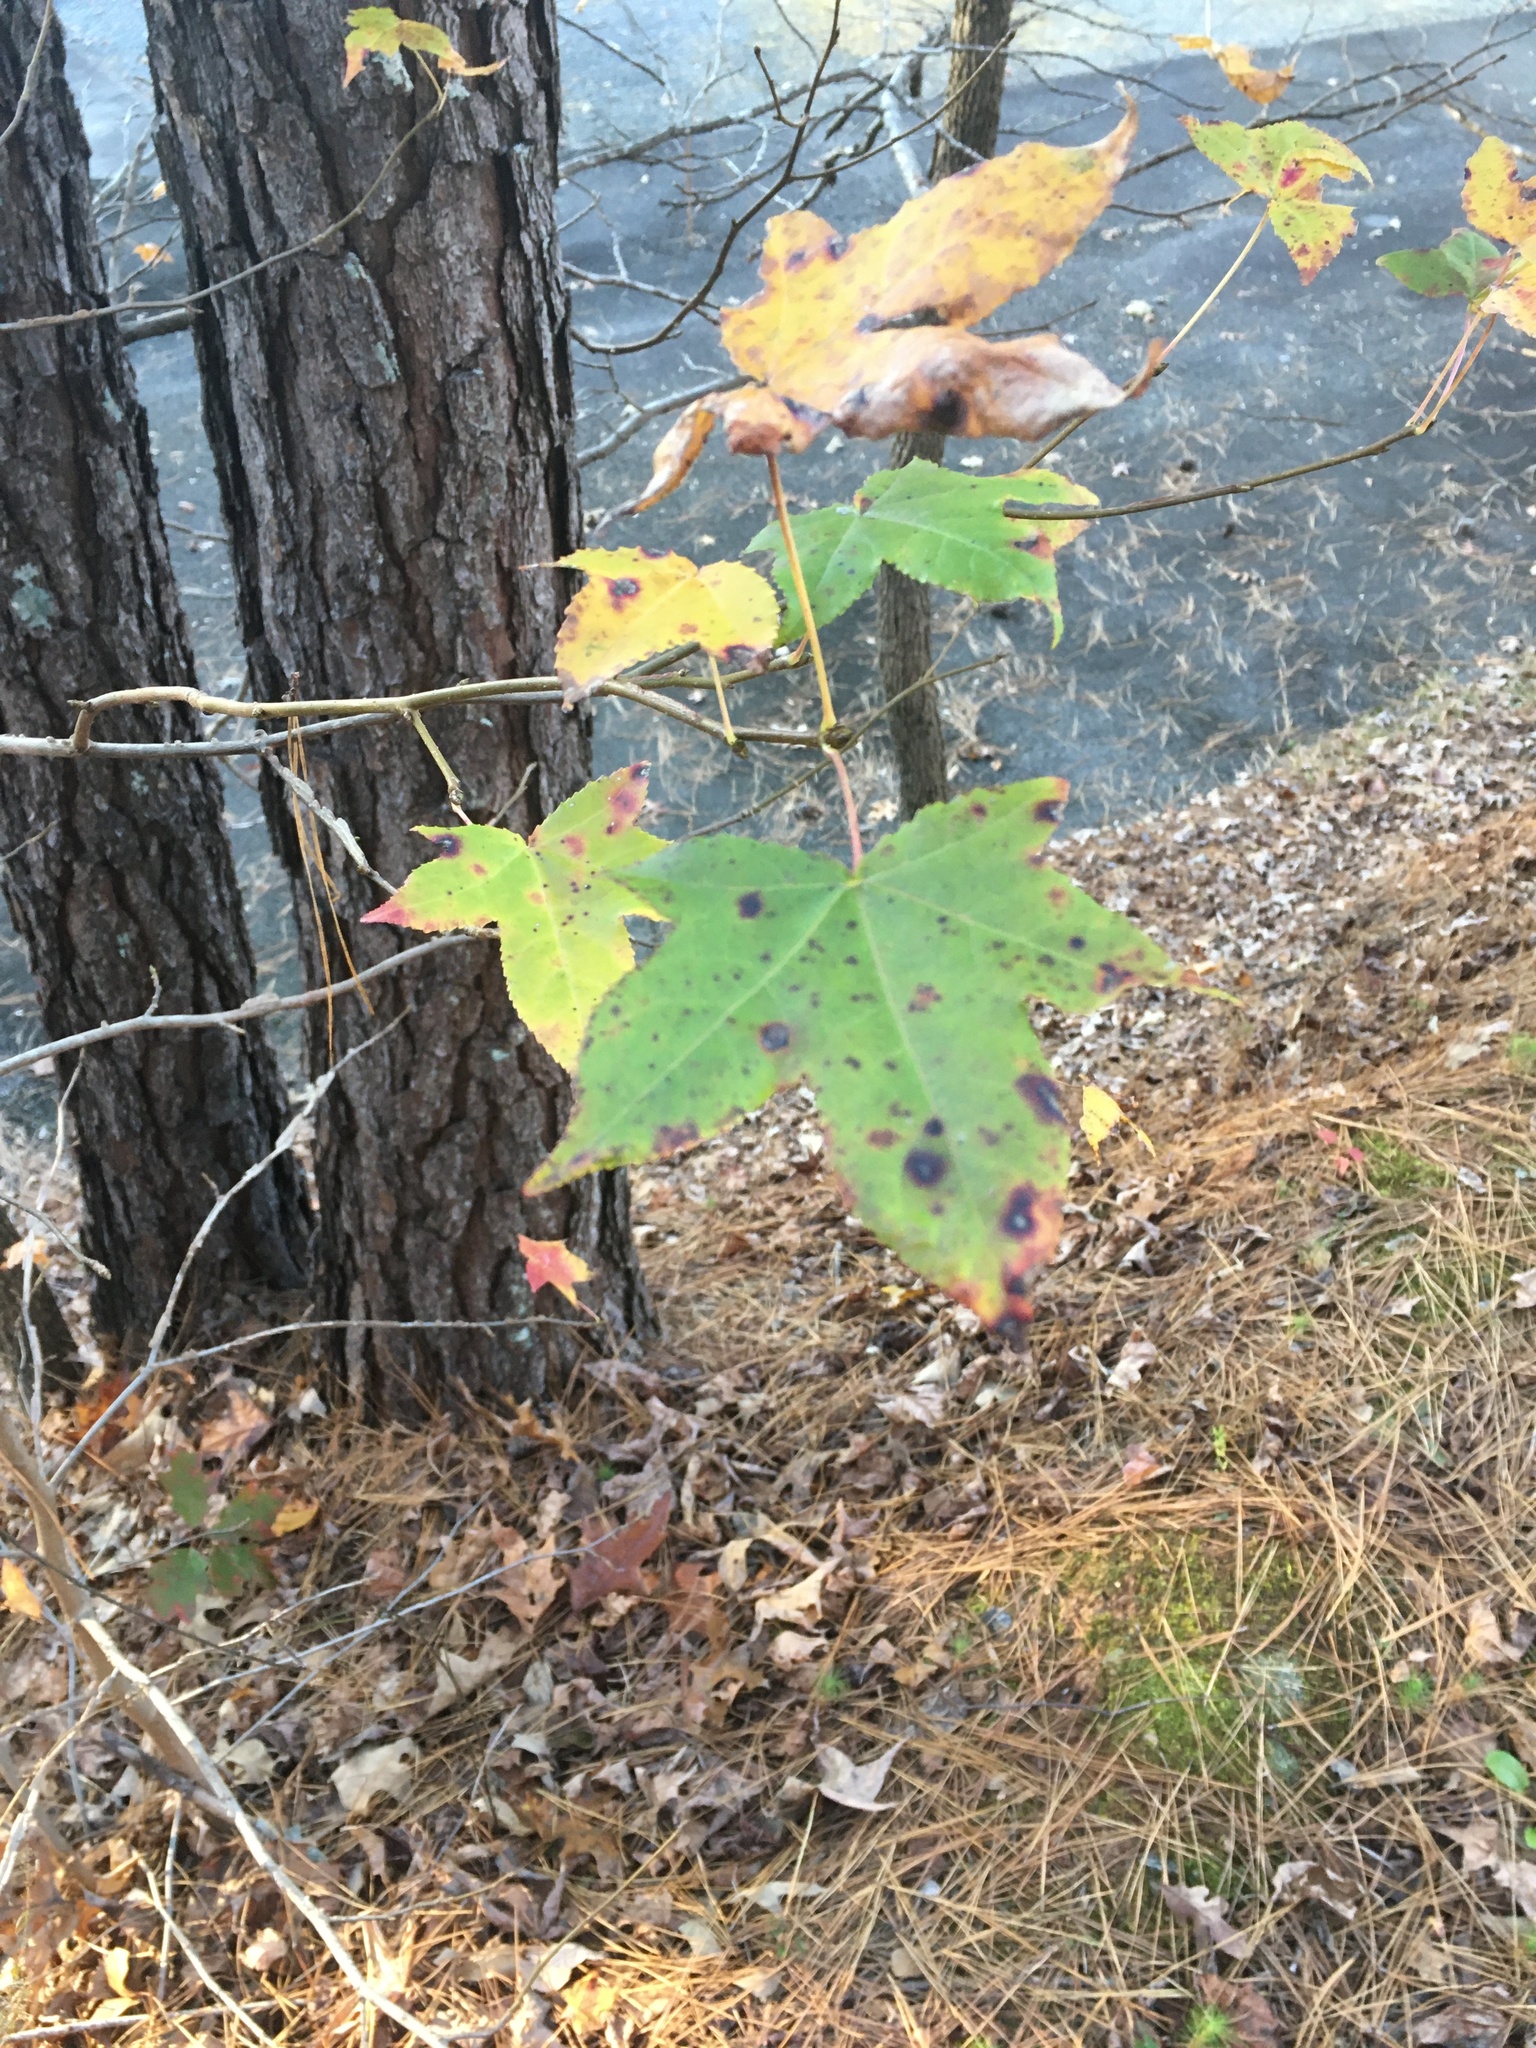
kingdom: Plantae
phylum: Tracheophyta
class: Magnoliopsida
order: Saxifragales
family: Altingiaceae
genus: Liquidambar
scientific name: Liquidambar styraciflua
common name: Sweet gum
